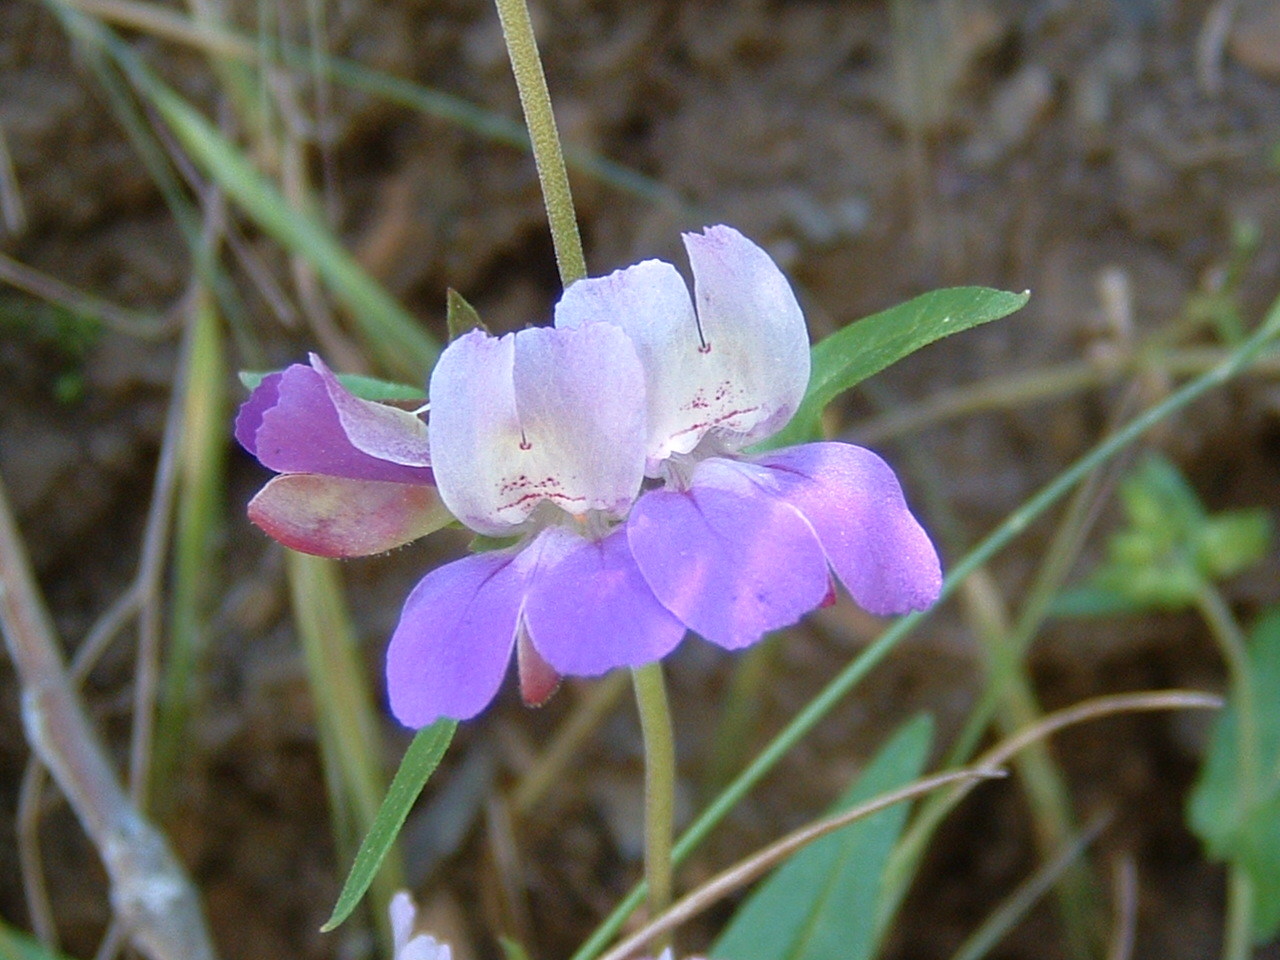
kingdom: Plantae
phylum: Tracheophyta
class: Magnoliopsida
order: Lamiales
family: Plantaginaceae
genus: Collinsia
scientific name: Collinsia heterophylla
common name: Chinese-houses
